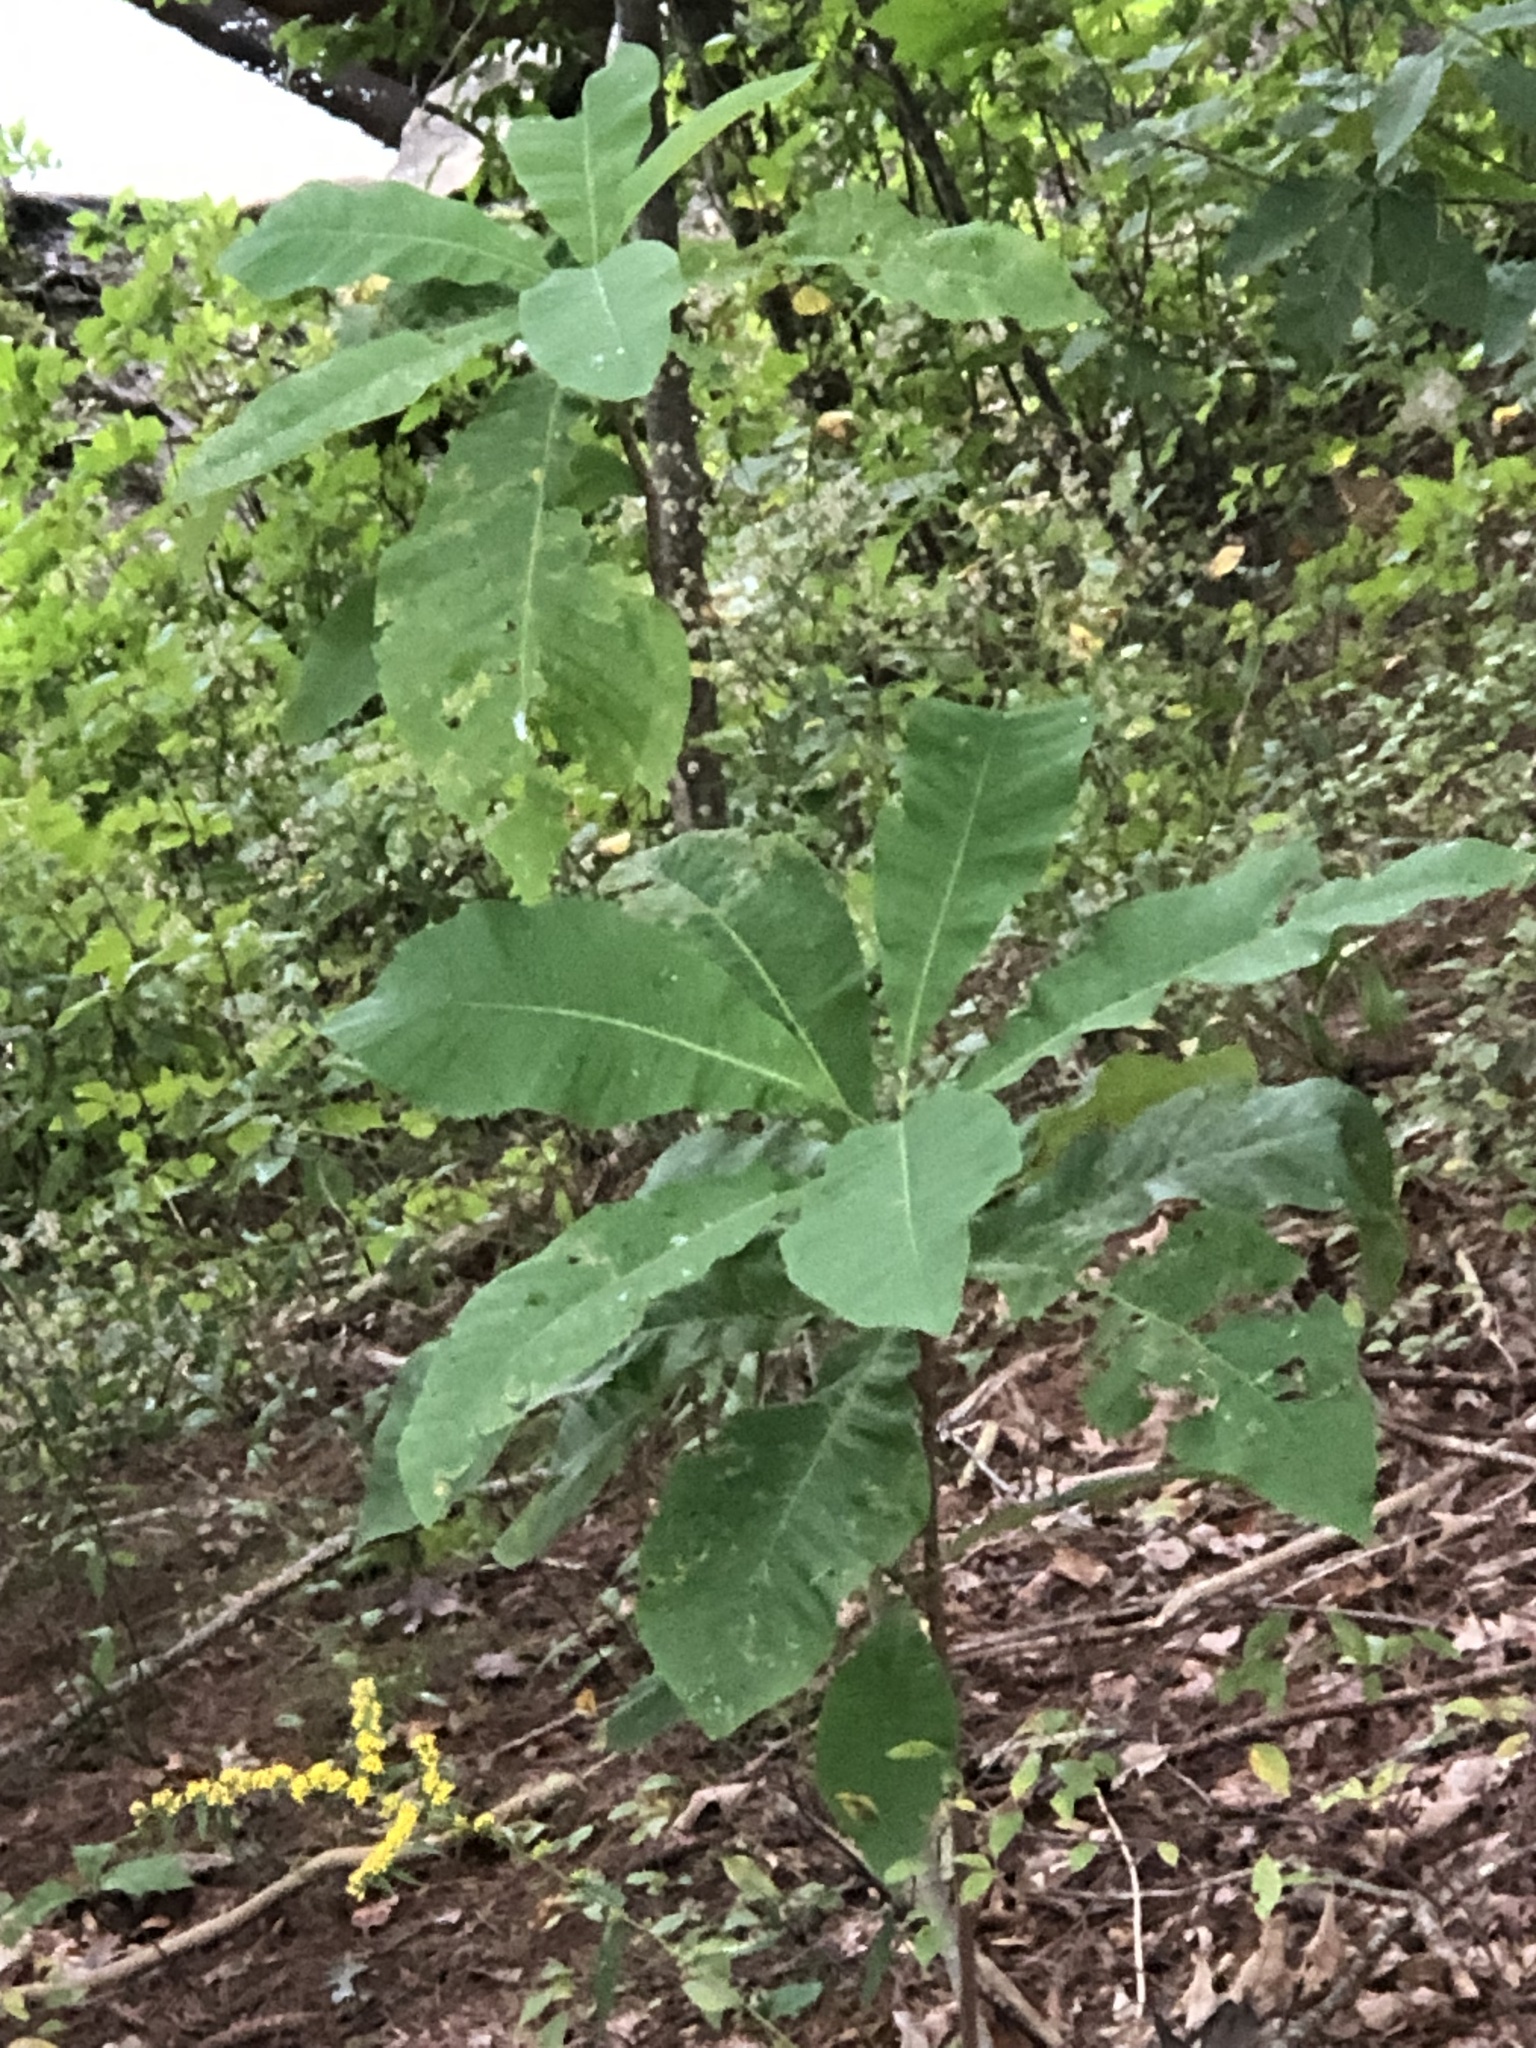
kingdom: Plantae
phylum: Tracheophyta
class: Magnoliopsida
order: Magnoliales
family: Magnoliaceae
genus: Magnolia
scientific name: Magnolia tripetala
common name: Umbrella magnolia
